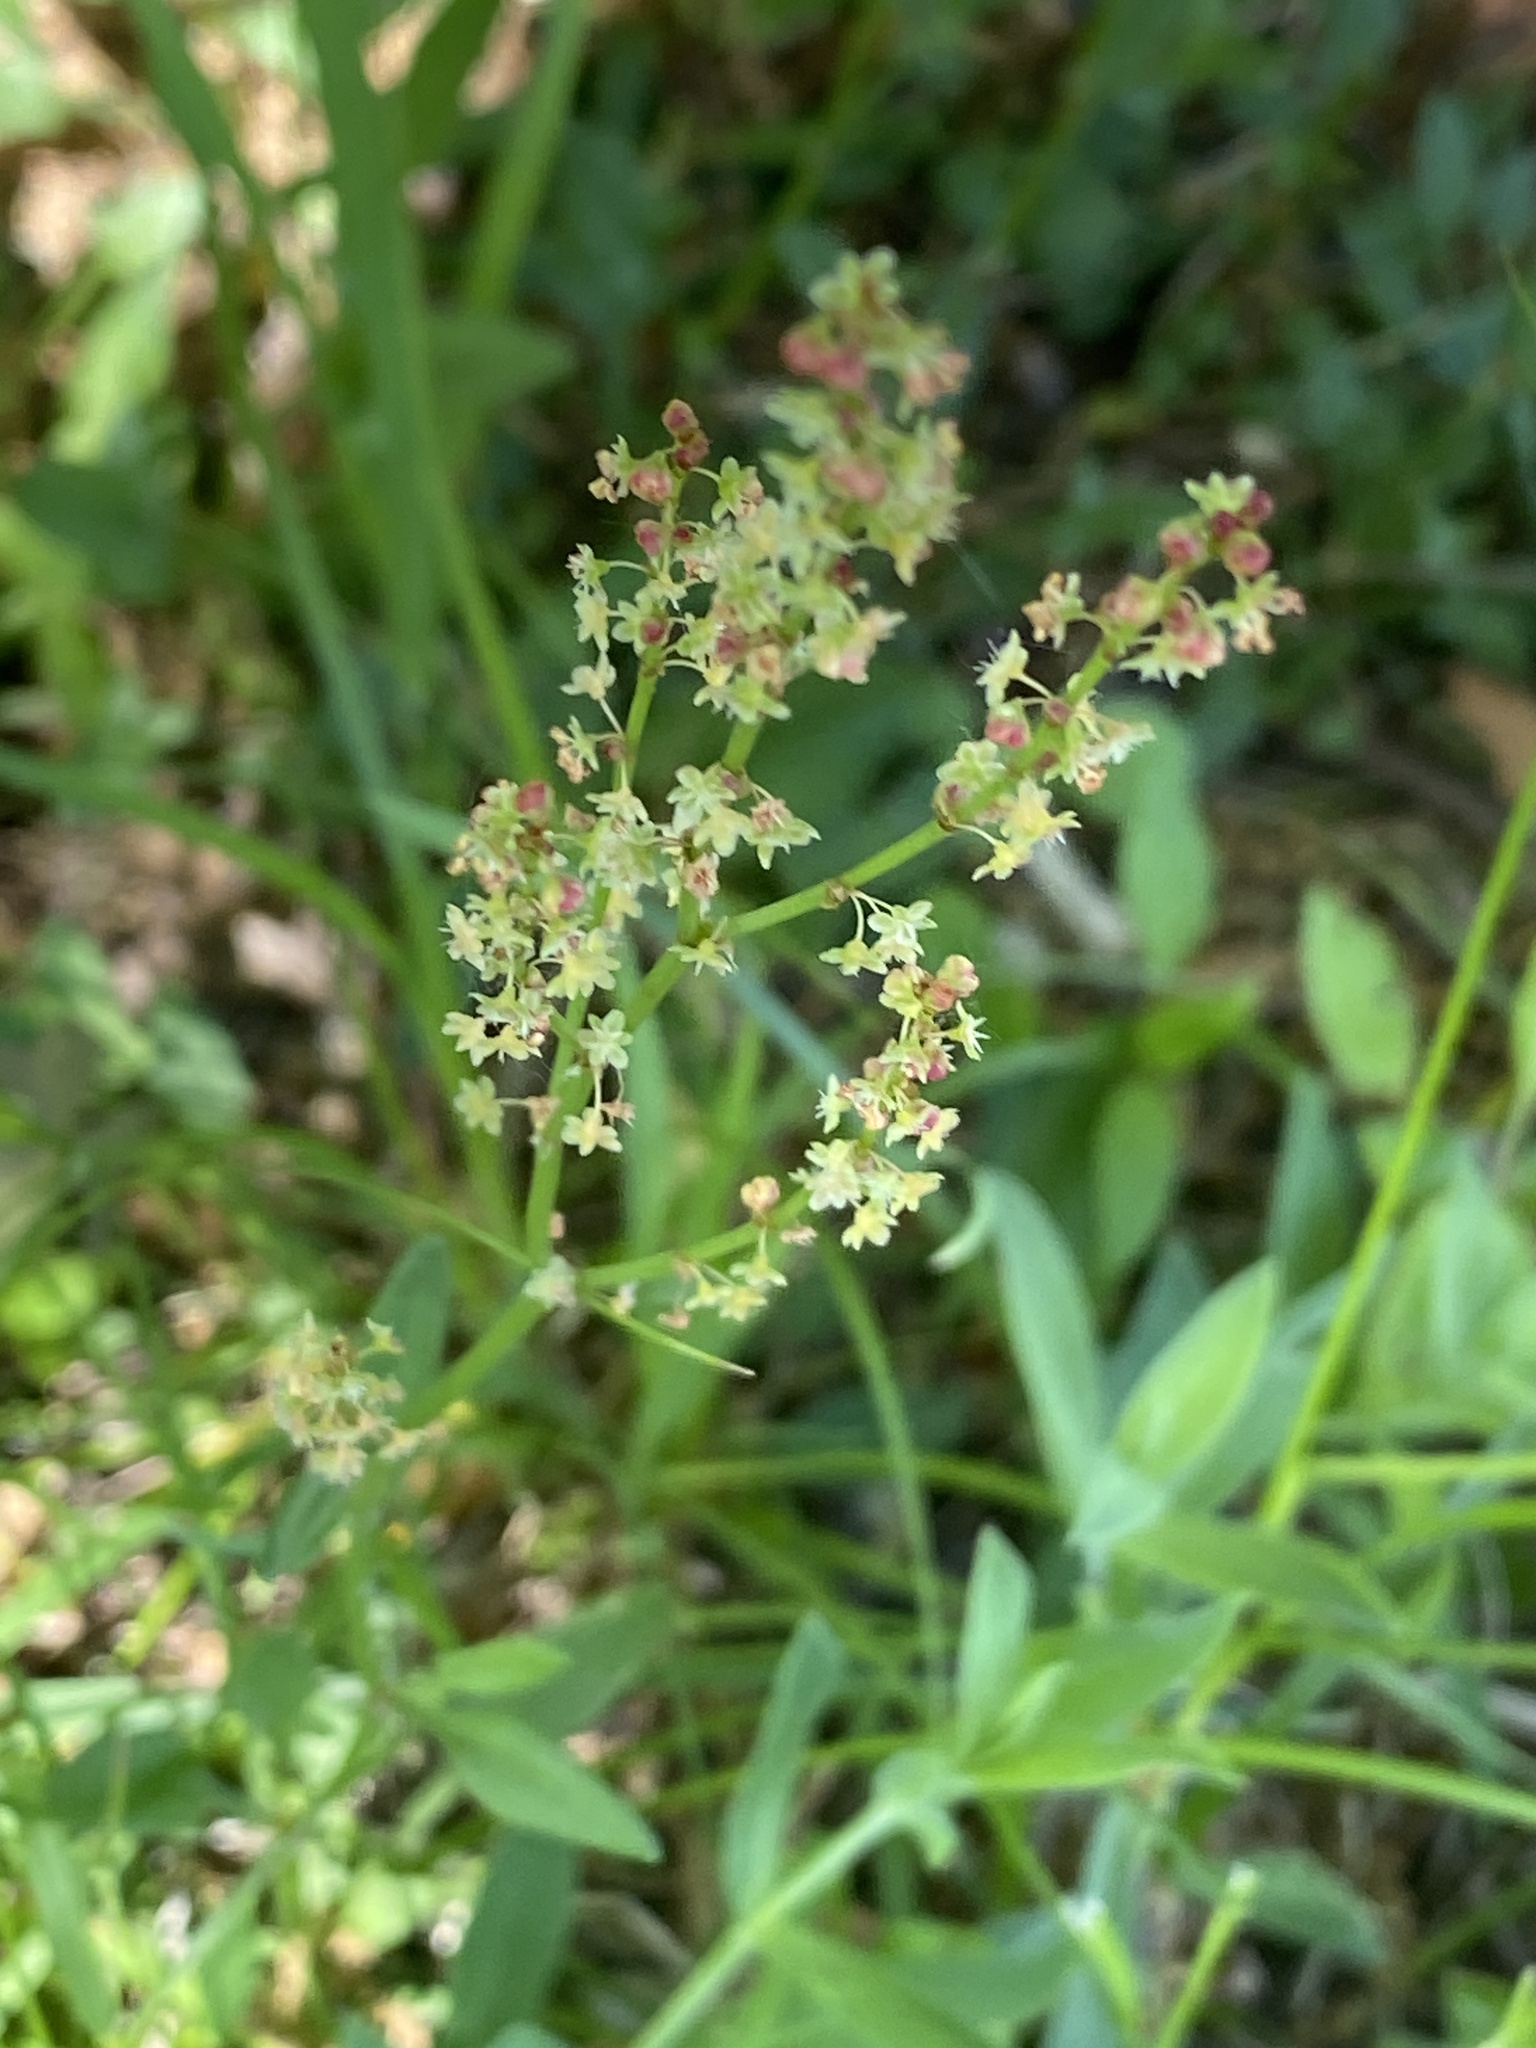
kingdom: Plantae
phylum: Tracheophyta
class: Magnoliopsida
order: Caryophyllales
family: Polygonaceae
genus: Rumex
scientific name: Rumex acetosella
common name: Common sheep sorrel
